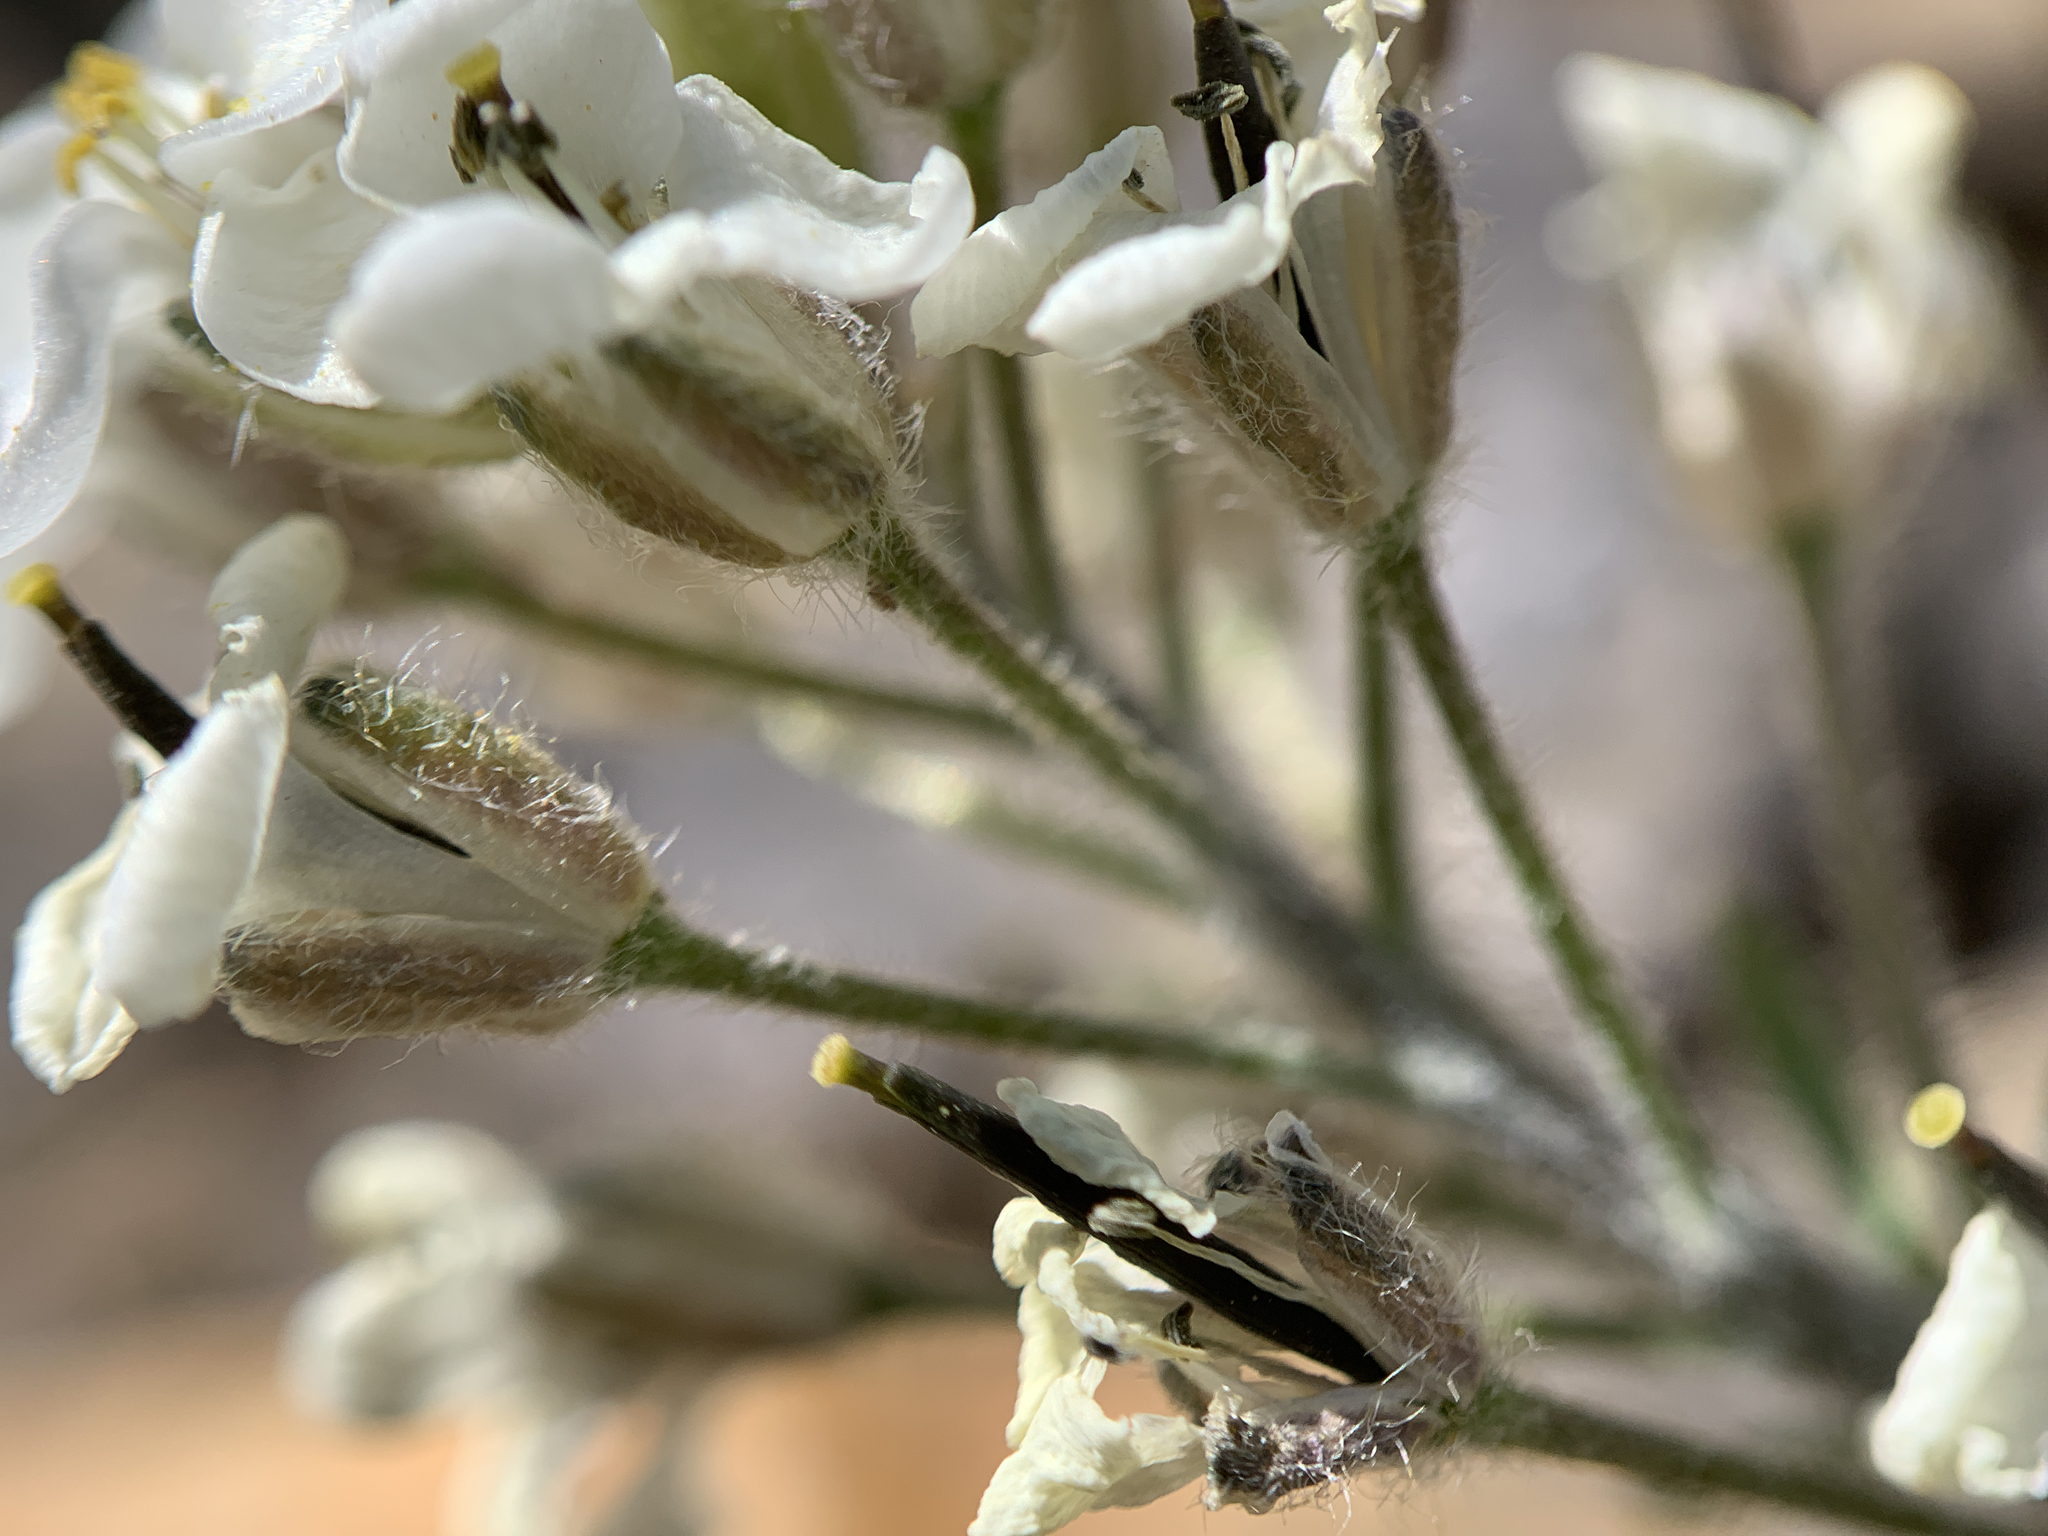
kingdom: Plantae
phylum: Tracheophyta
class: Magnoliopsida
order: Brassicales
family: Brassicaceae
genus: Smelowskia
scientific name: Smelowskia americana
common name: American false candytuft
